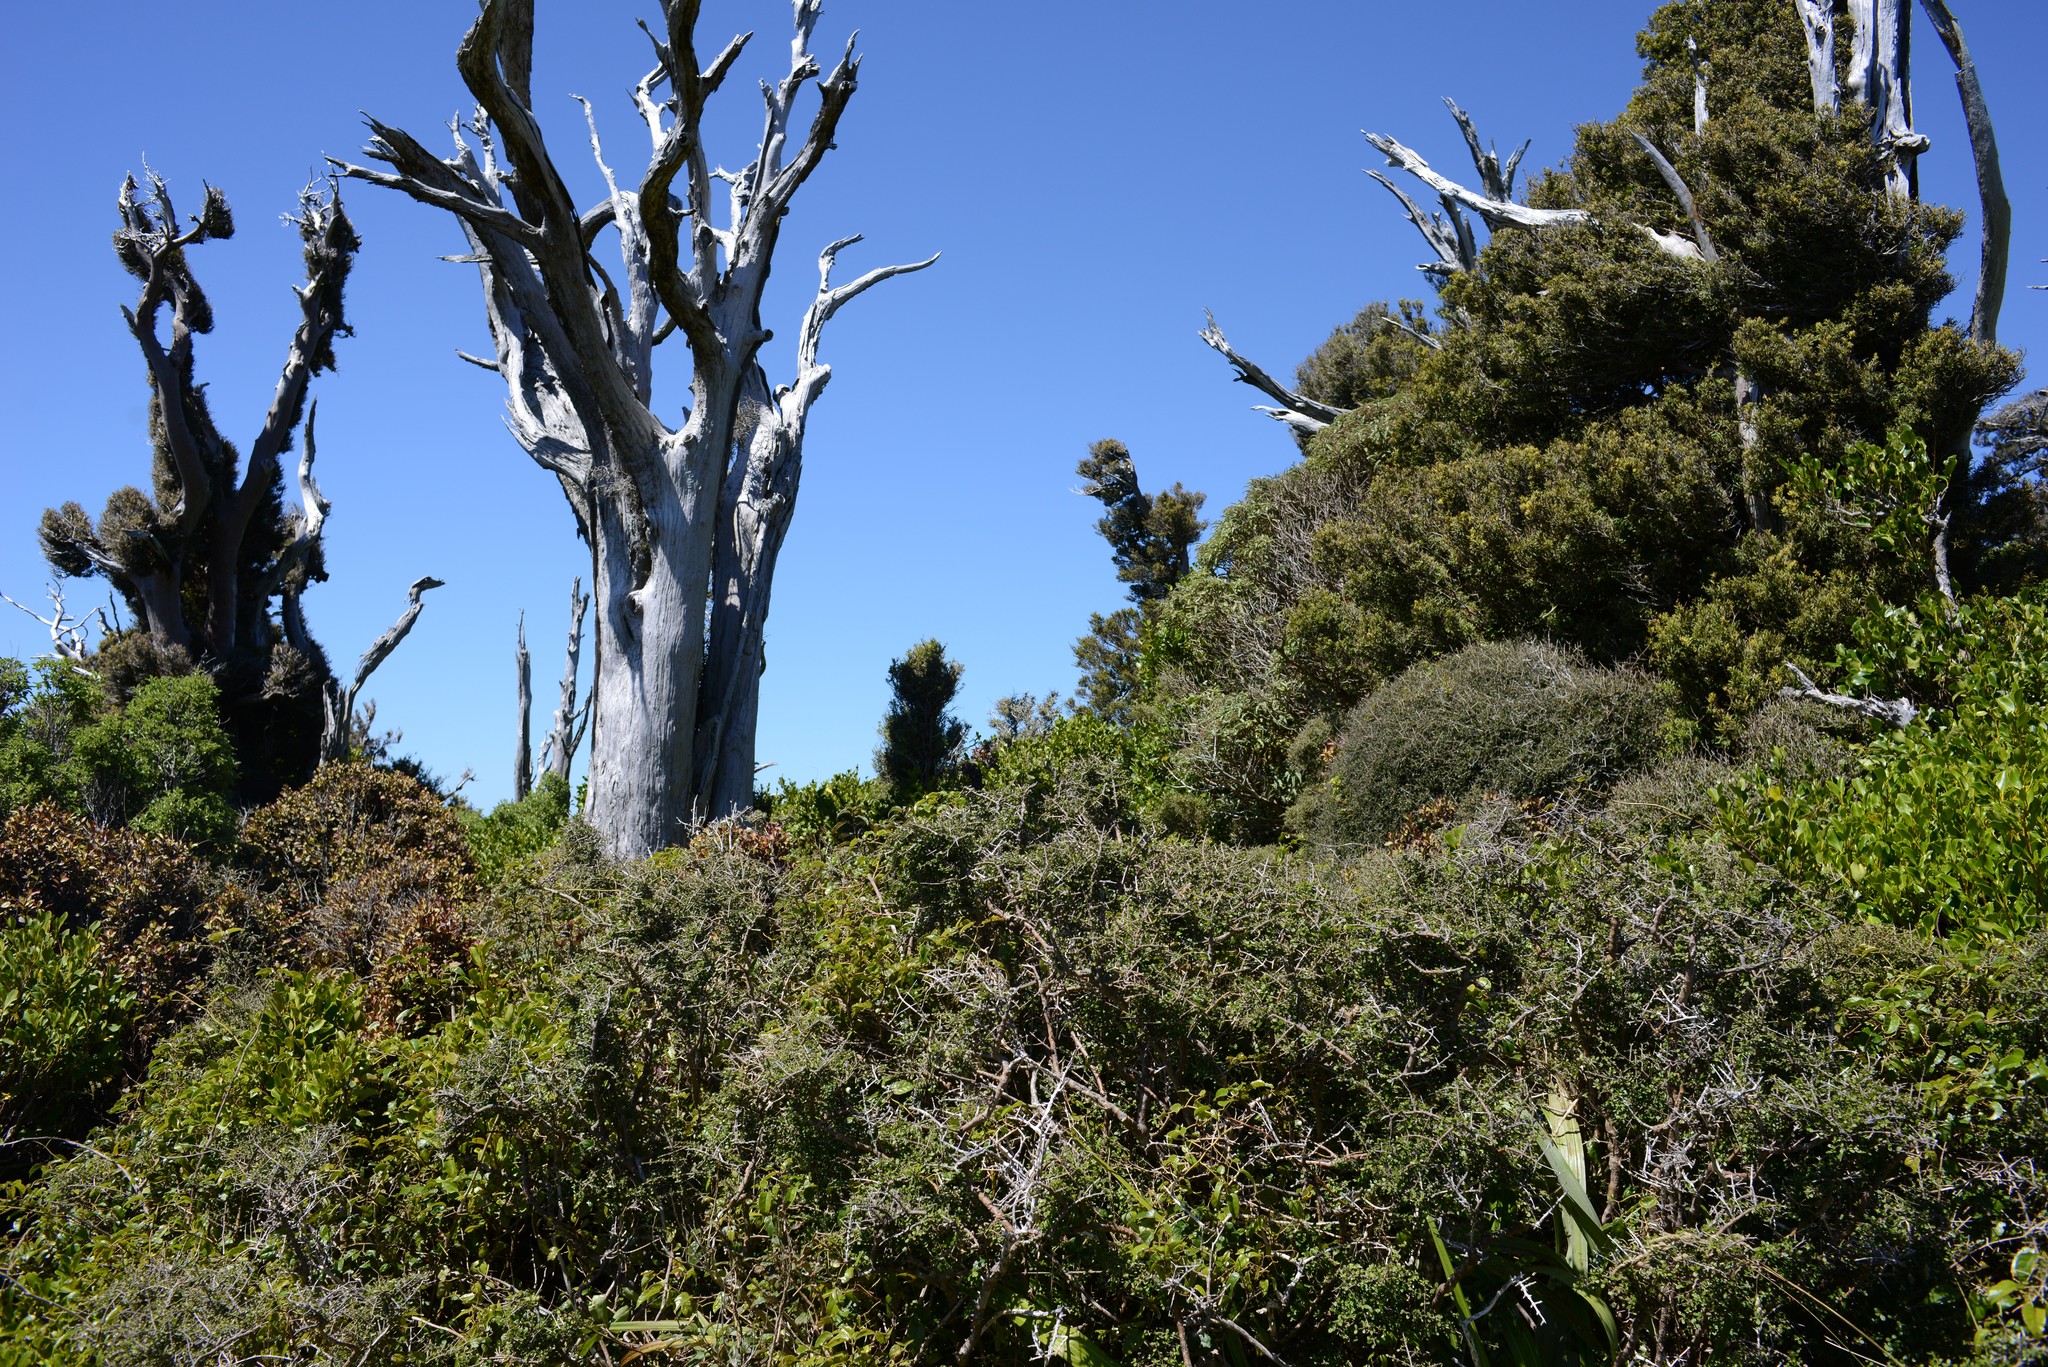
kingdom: Plantae
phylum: Tracheophyta
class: Magnoliopsida
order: Apiales
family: Griseliniaceae
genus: Griselinia
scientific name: Griselinia littoralis
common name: New zealand broadleaf
